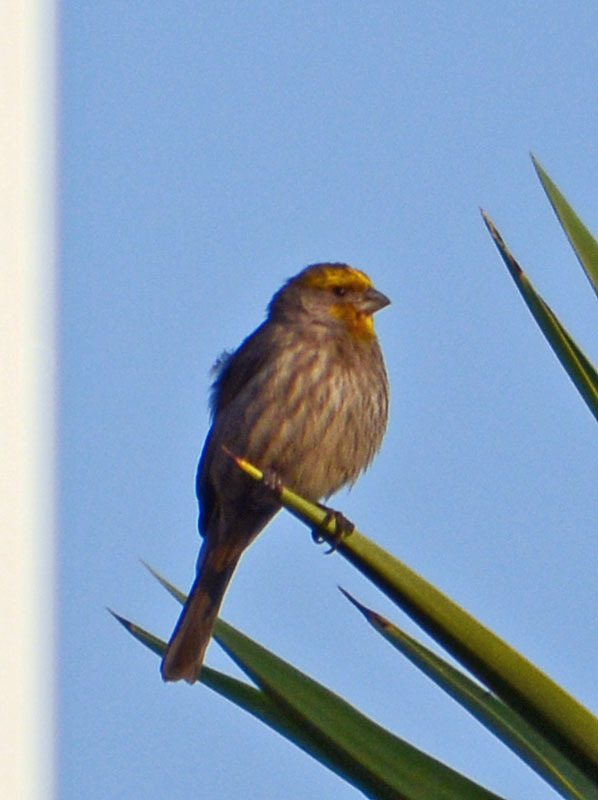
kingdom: Animalia
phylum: Chordata
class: Aves
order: Passeriformes
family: Fringillidae
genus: Haemorhous
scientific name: Haemorhous mexicanus
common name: House finch
